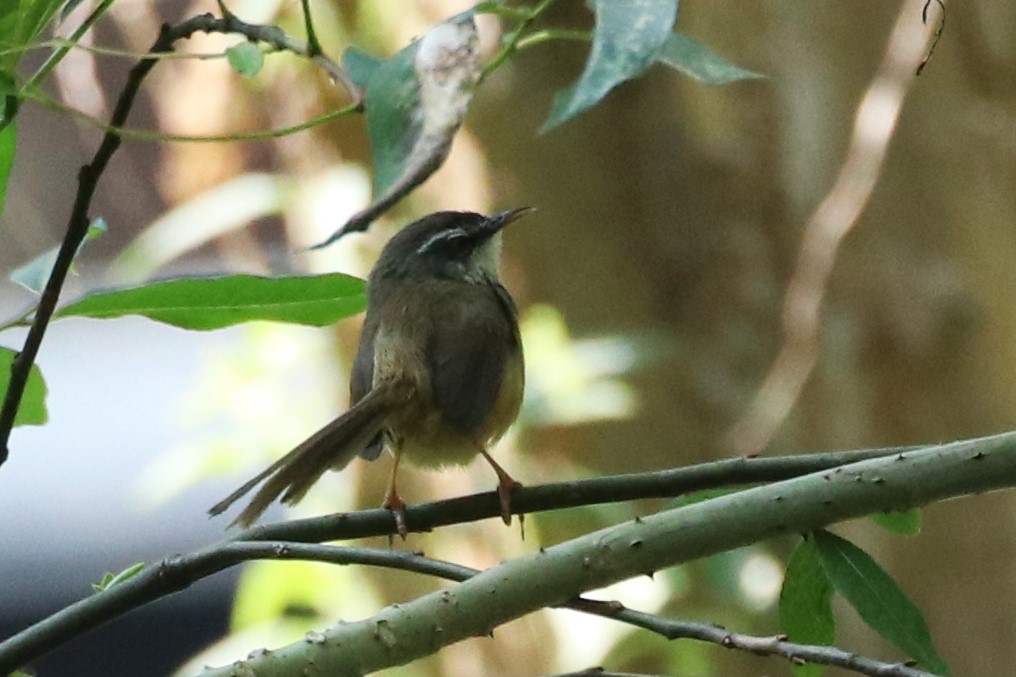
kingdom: Animalia
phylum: Chordata
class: Aves
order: Passeriformes
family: Cisticolidae
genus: Prinia
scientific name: Prinia superciliaris
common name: Hill prinia
